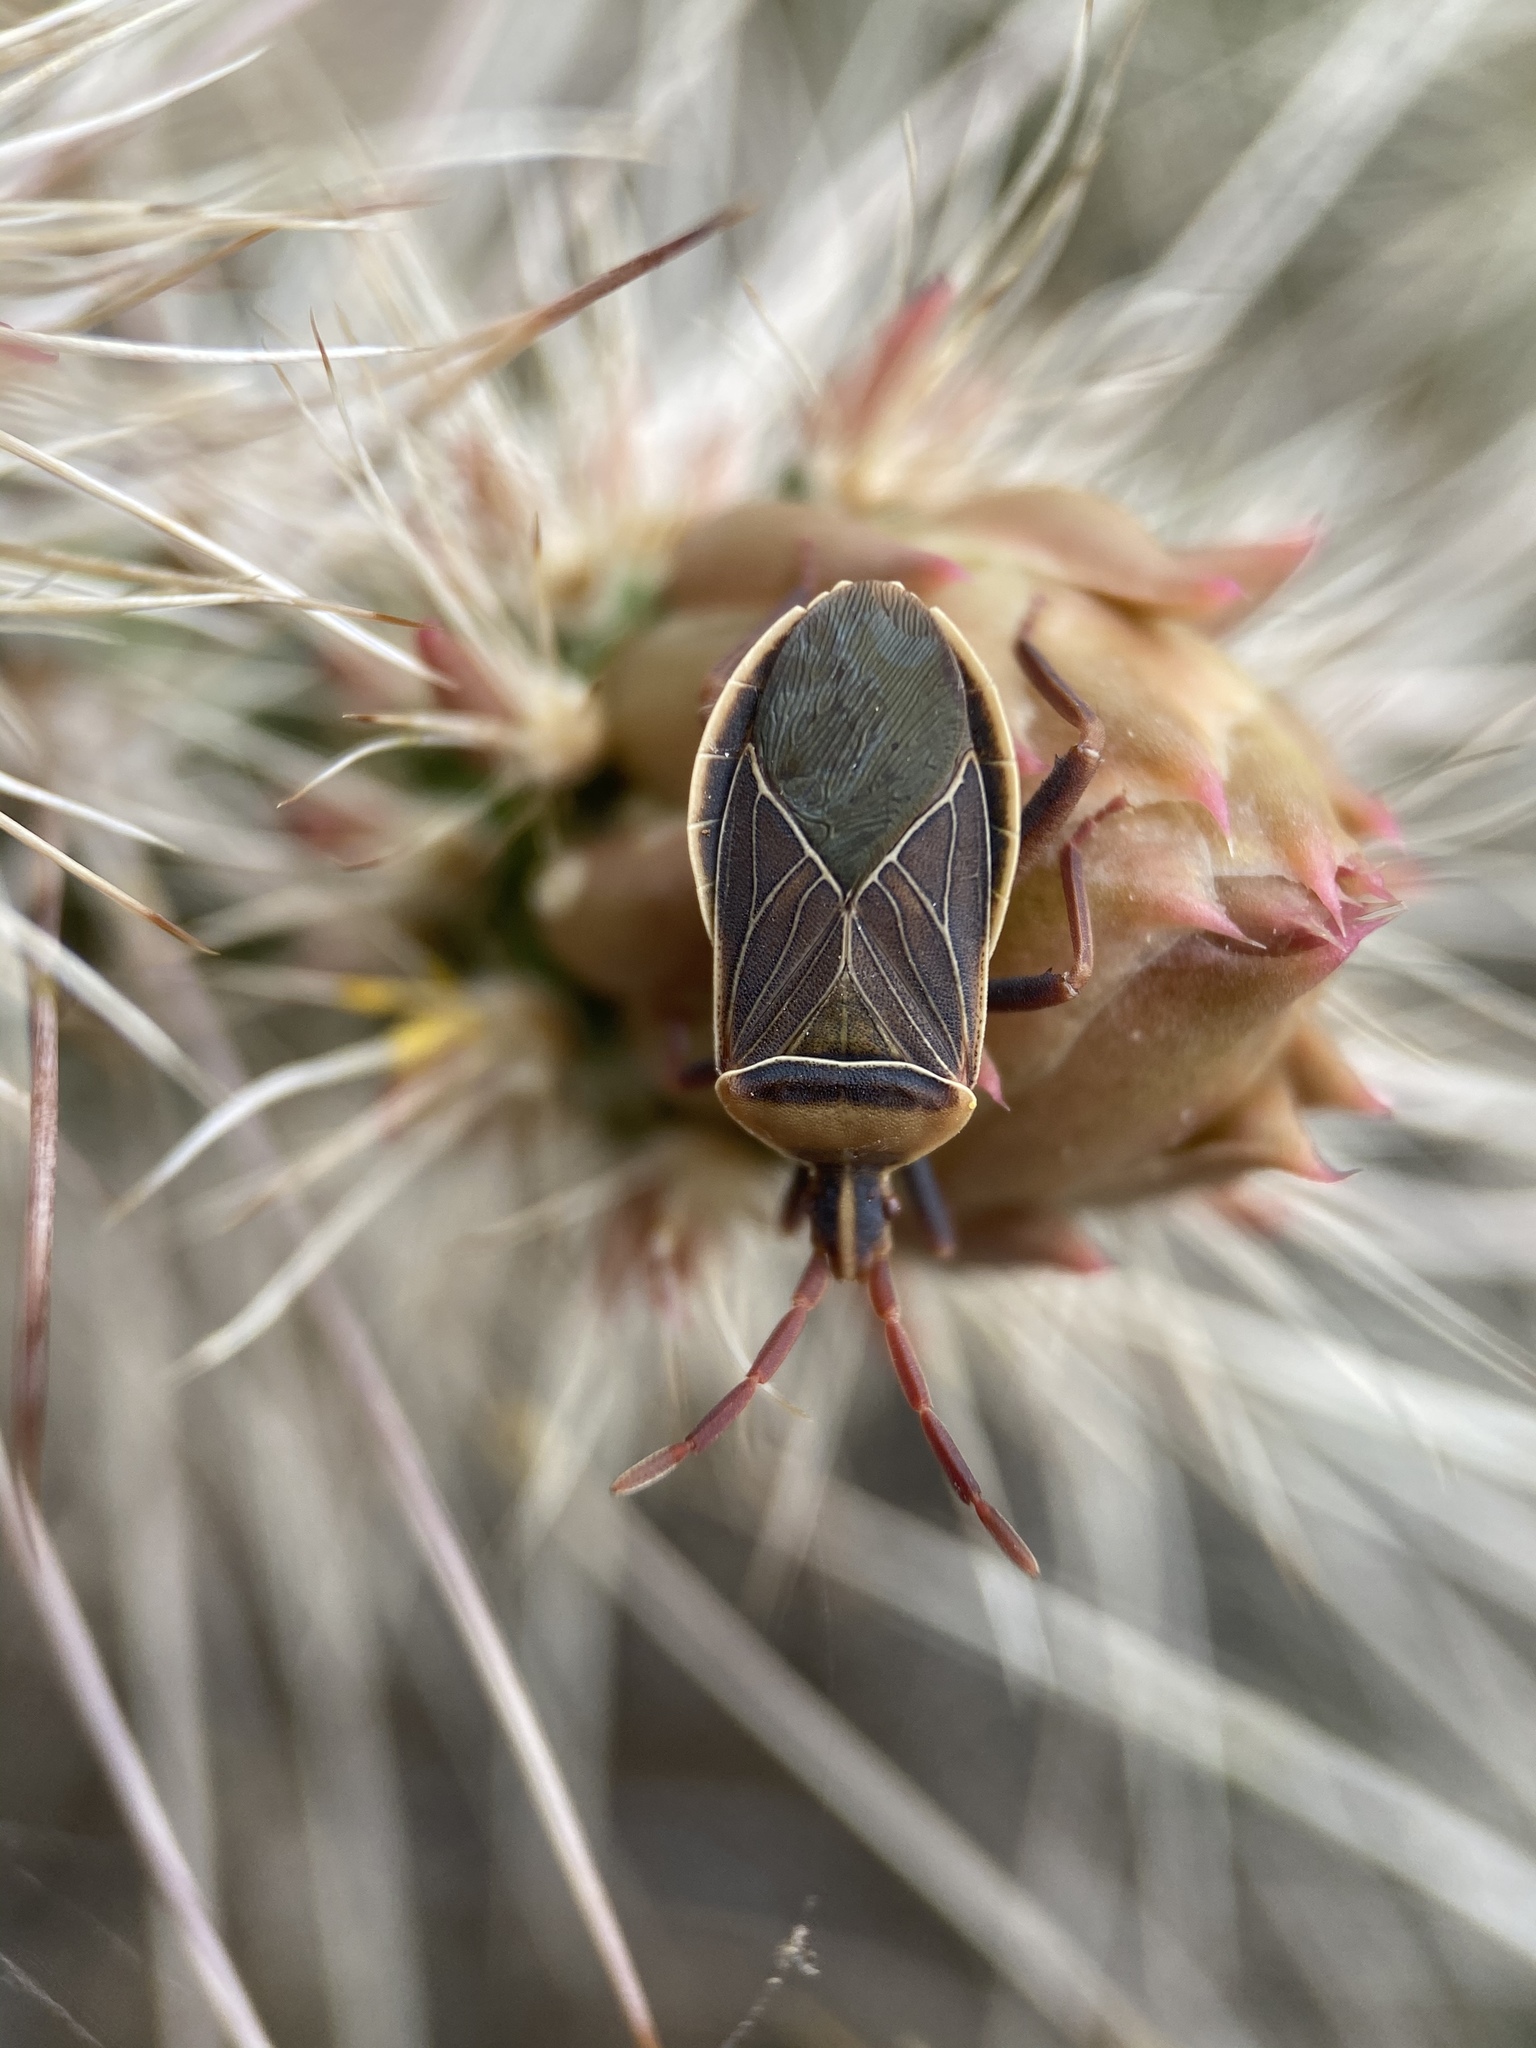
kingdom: Animalia
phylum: Arthropoda
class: Insecta
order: Hemiptera
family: Coreidae
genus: Chelinidea
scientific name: Chelinidea vittiger
